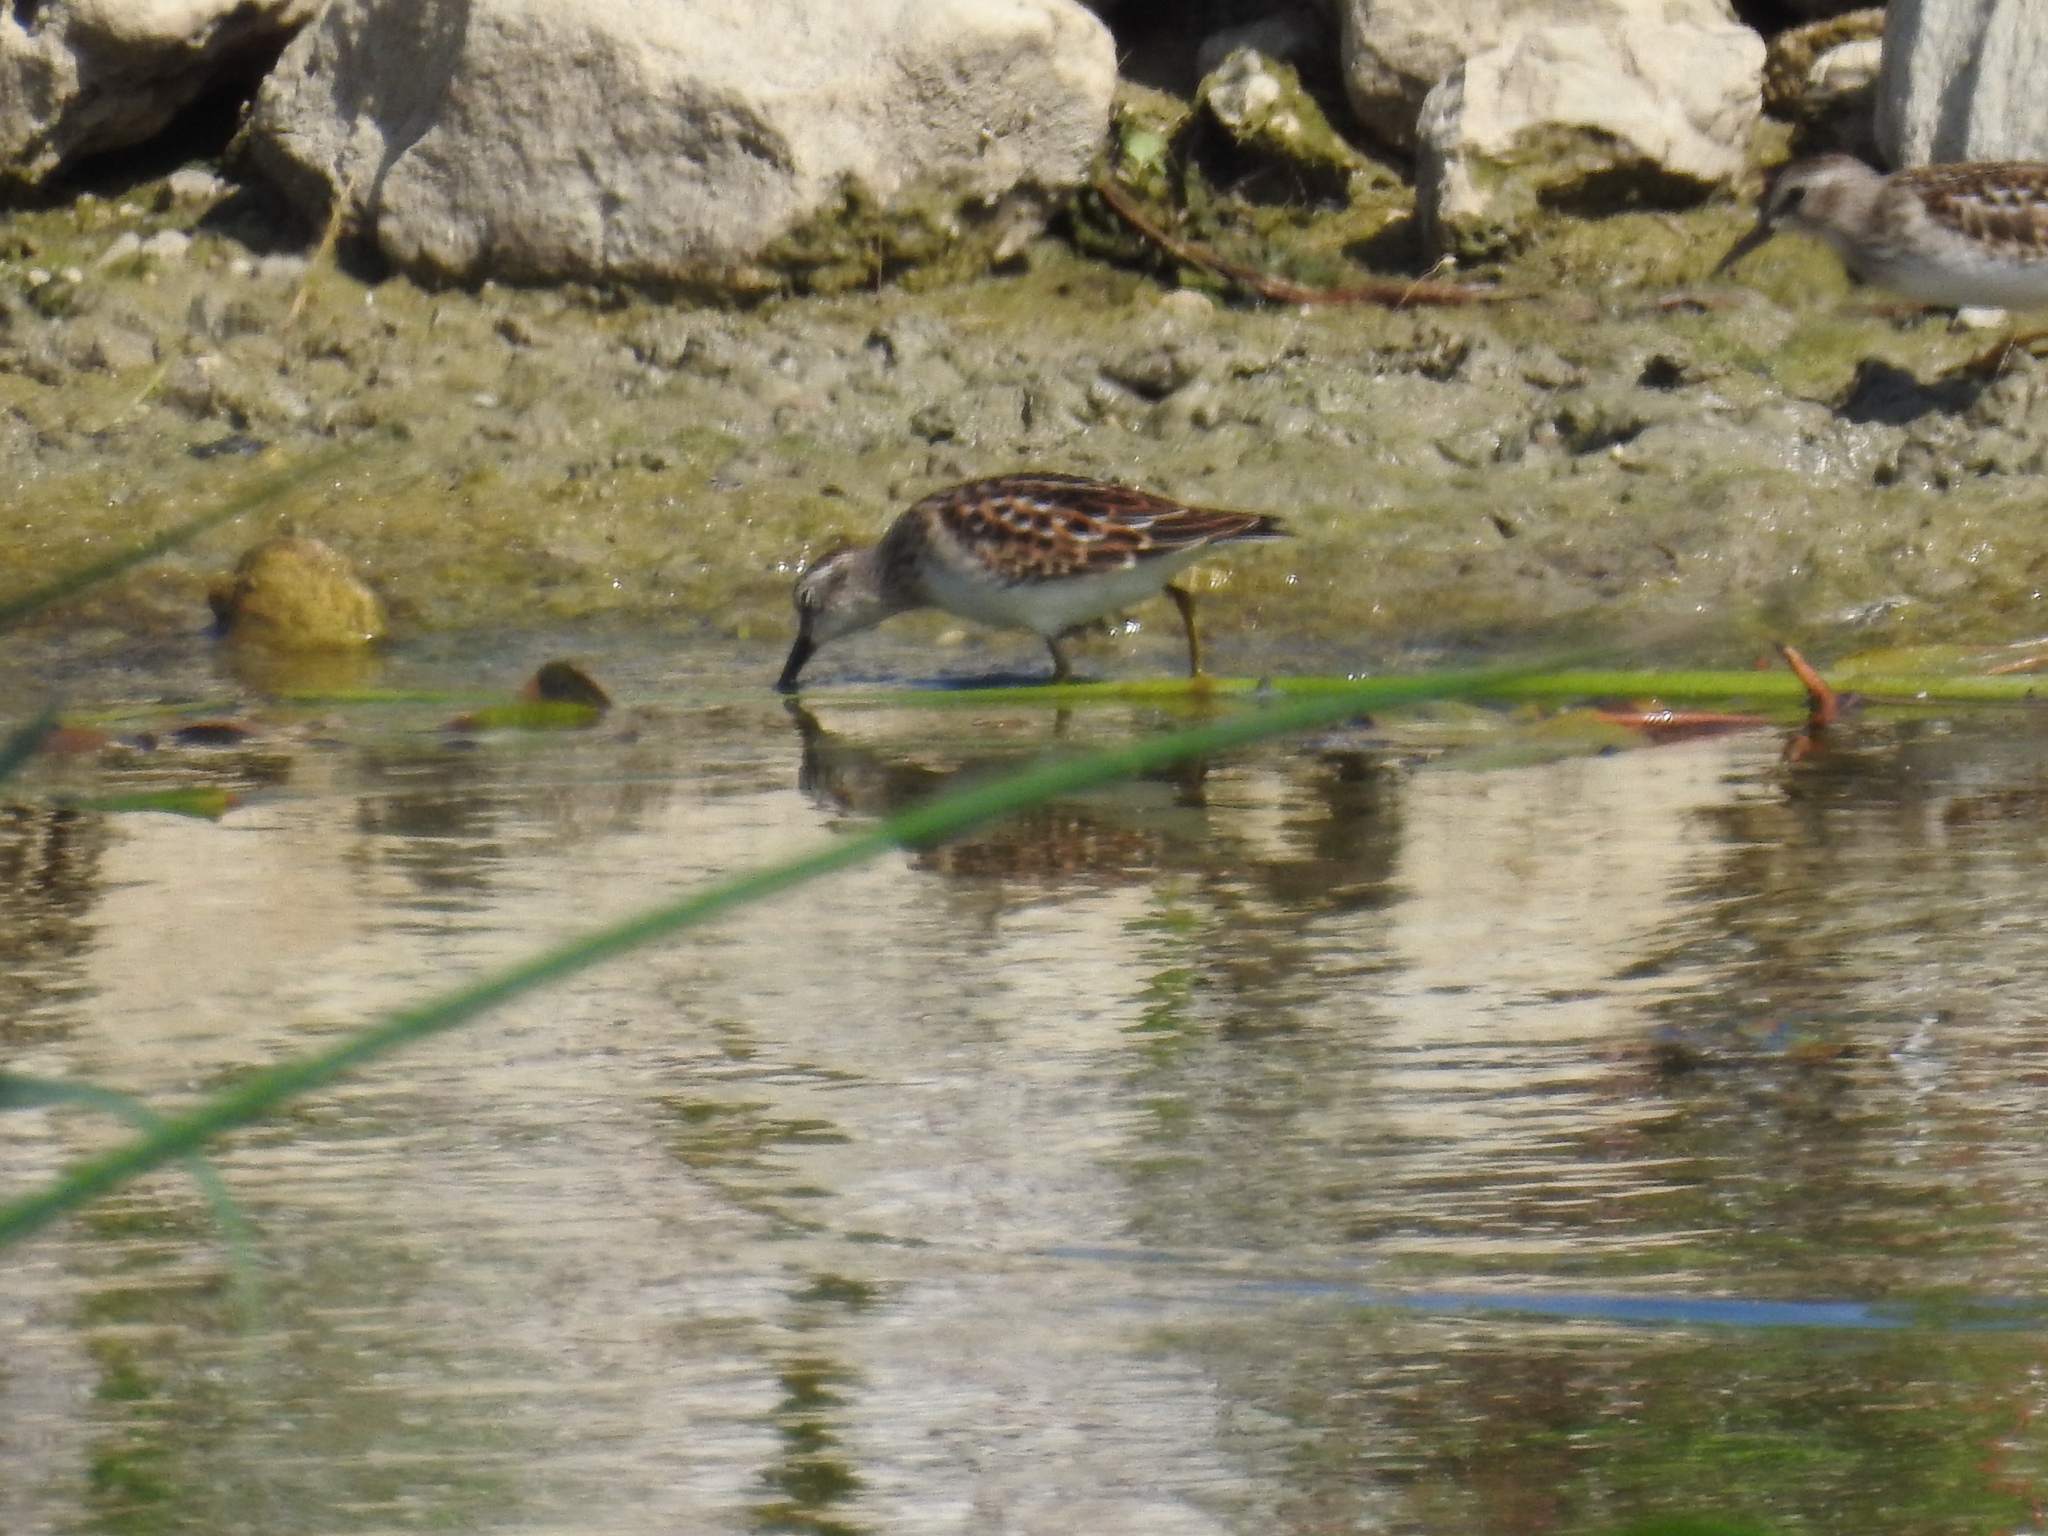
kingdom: Animalia
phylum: Chordata
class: Aves
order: Charadriiformes
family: Scolopacidae
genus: Calidris
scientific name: Calidris minutilla
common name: Least sandpiper
